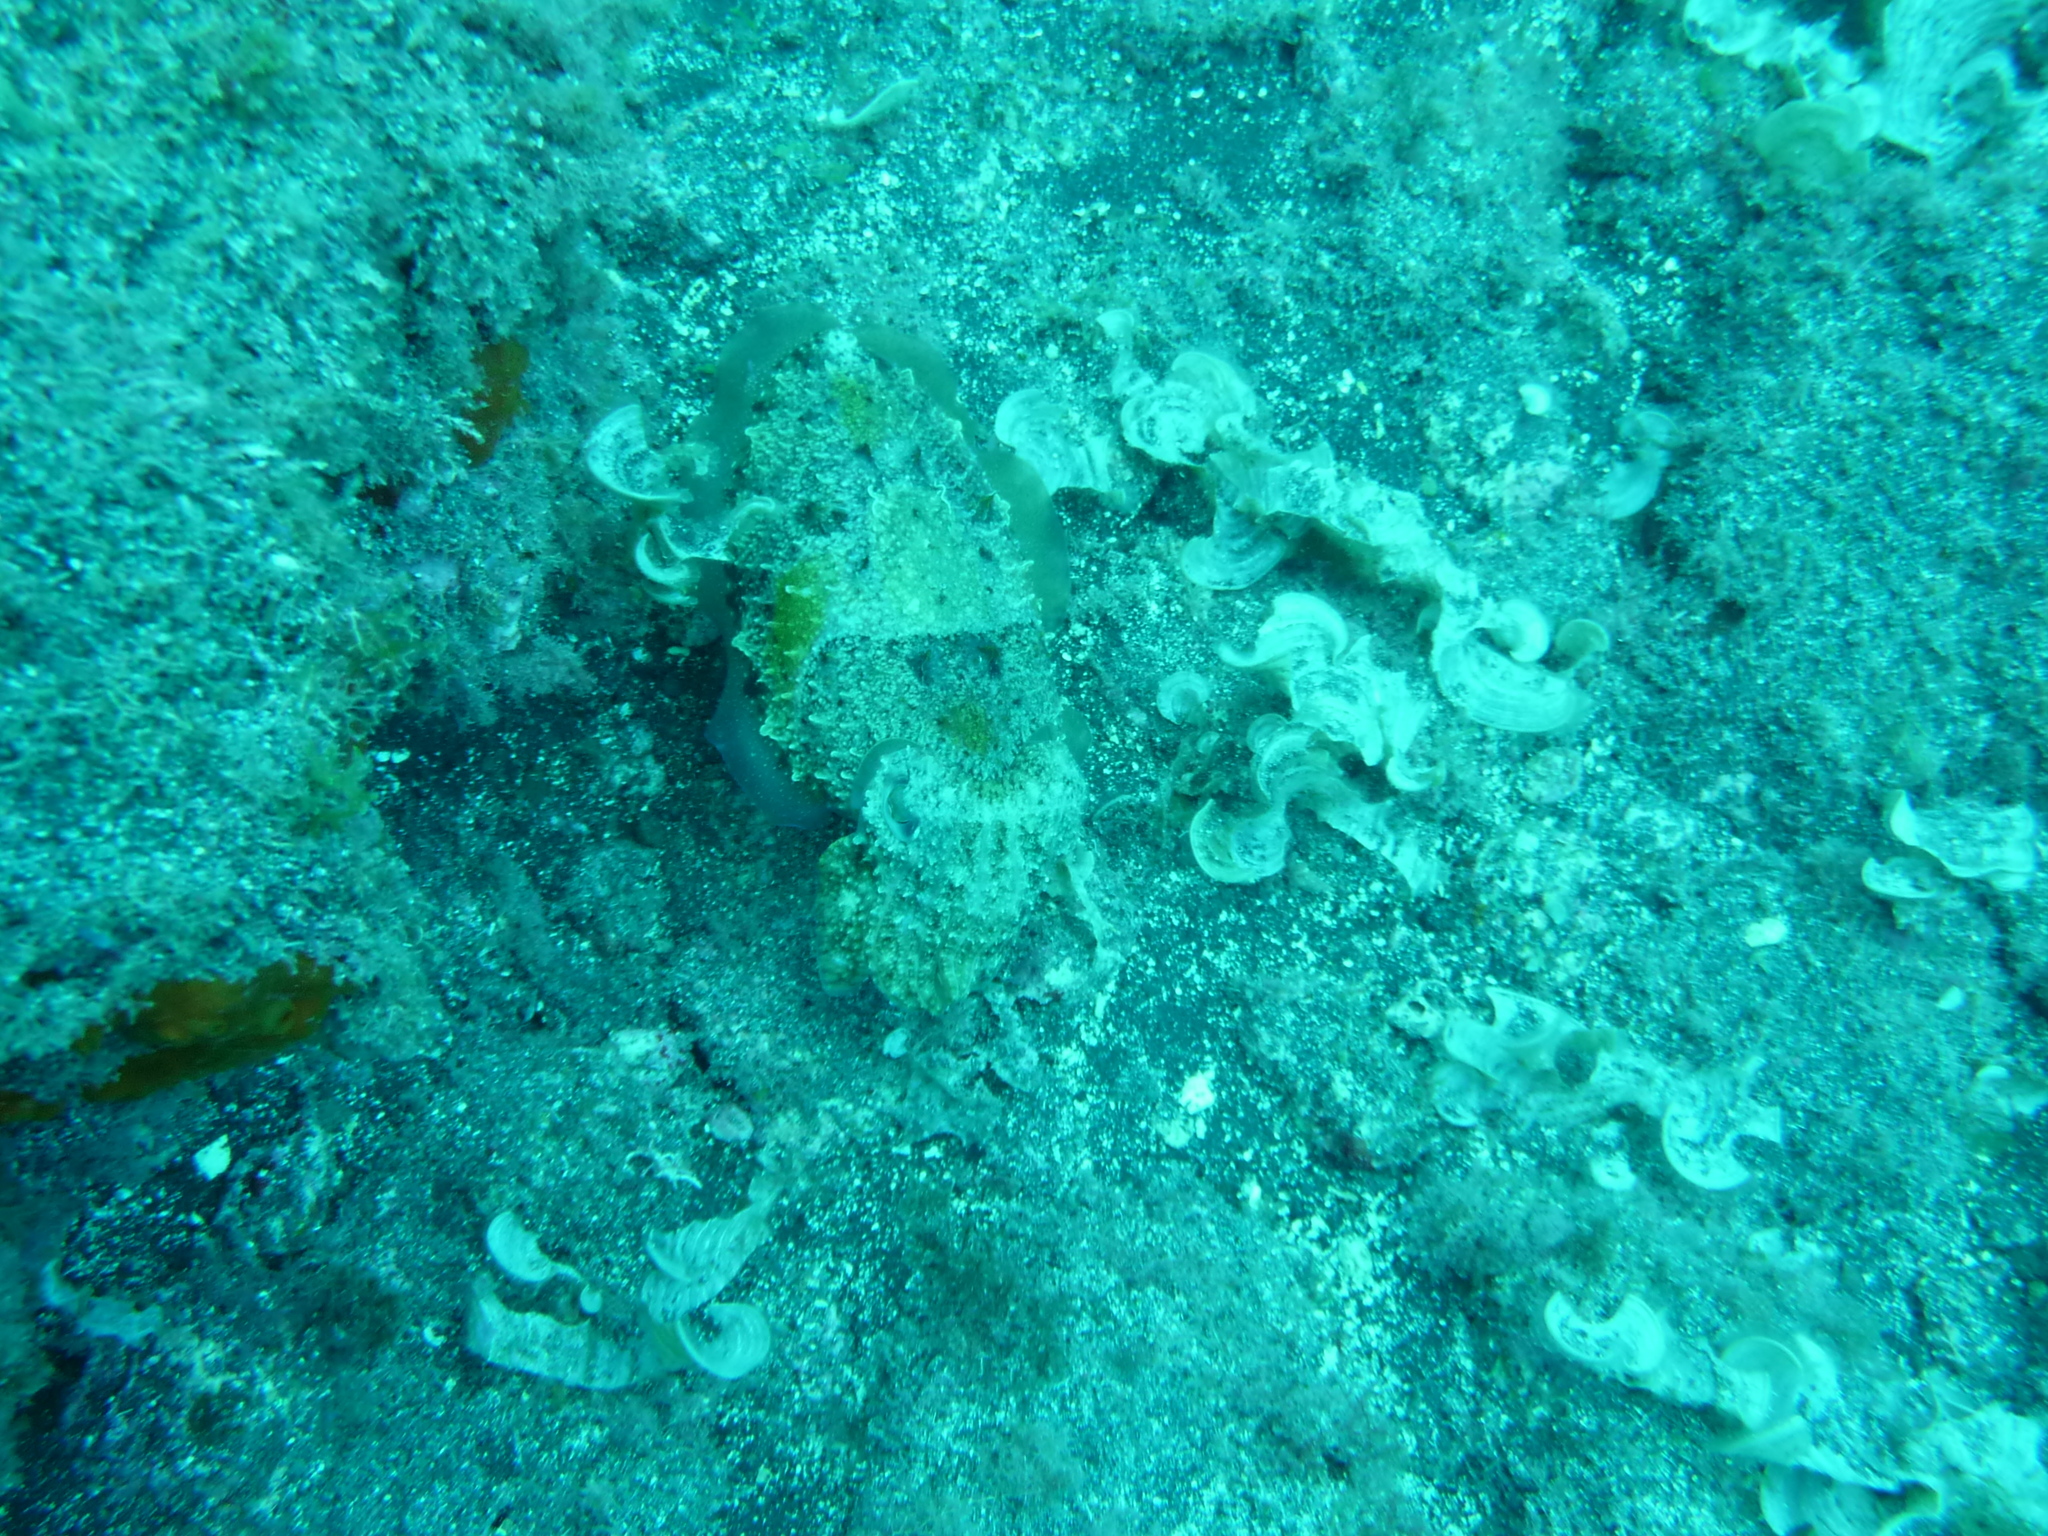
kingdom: Animalia
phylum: Mollusca
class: Cephalopoda
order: Sepiida
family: Sepiidae
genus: Sepia
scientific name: Sepia officinalis
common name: Common cuttlefish
